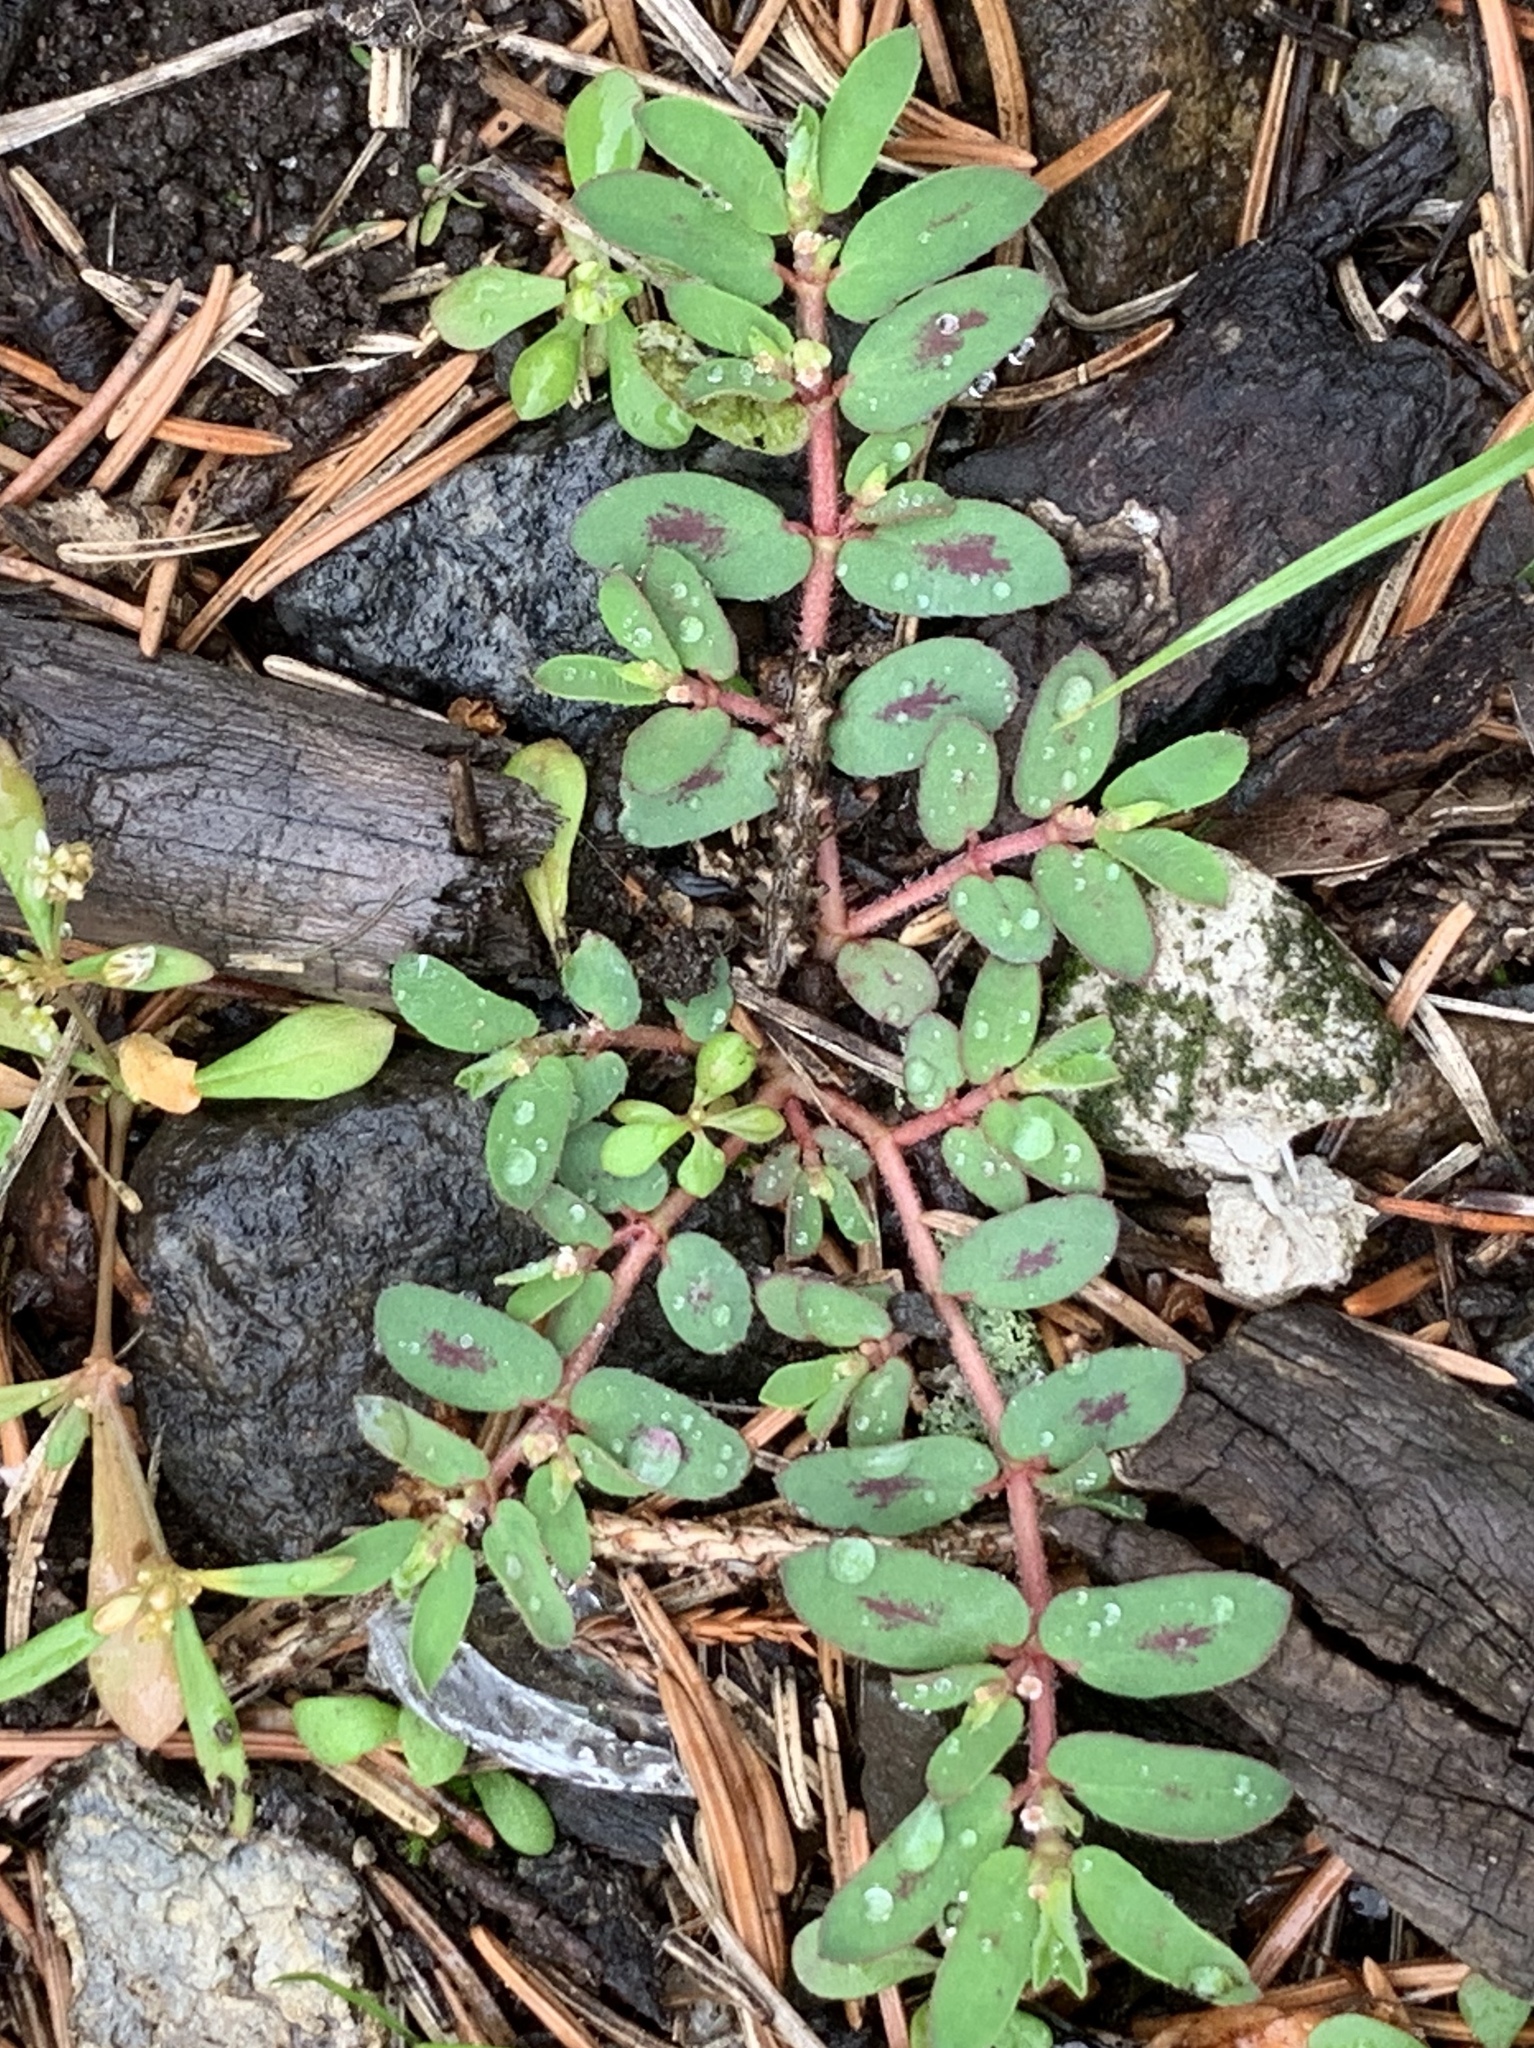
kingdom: Plantae
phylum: Tracheophyta
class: Magnoliopsida
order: Malpighiales
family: Euphorbiaceae
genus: Euphorbia
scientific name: Euphorbia maculata
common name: Spotted spurge
